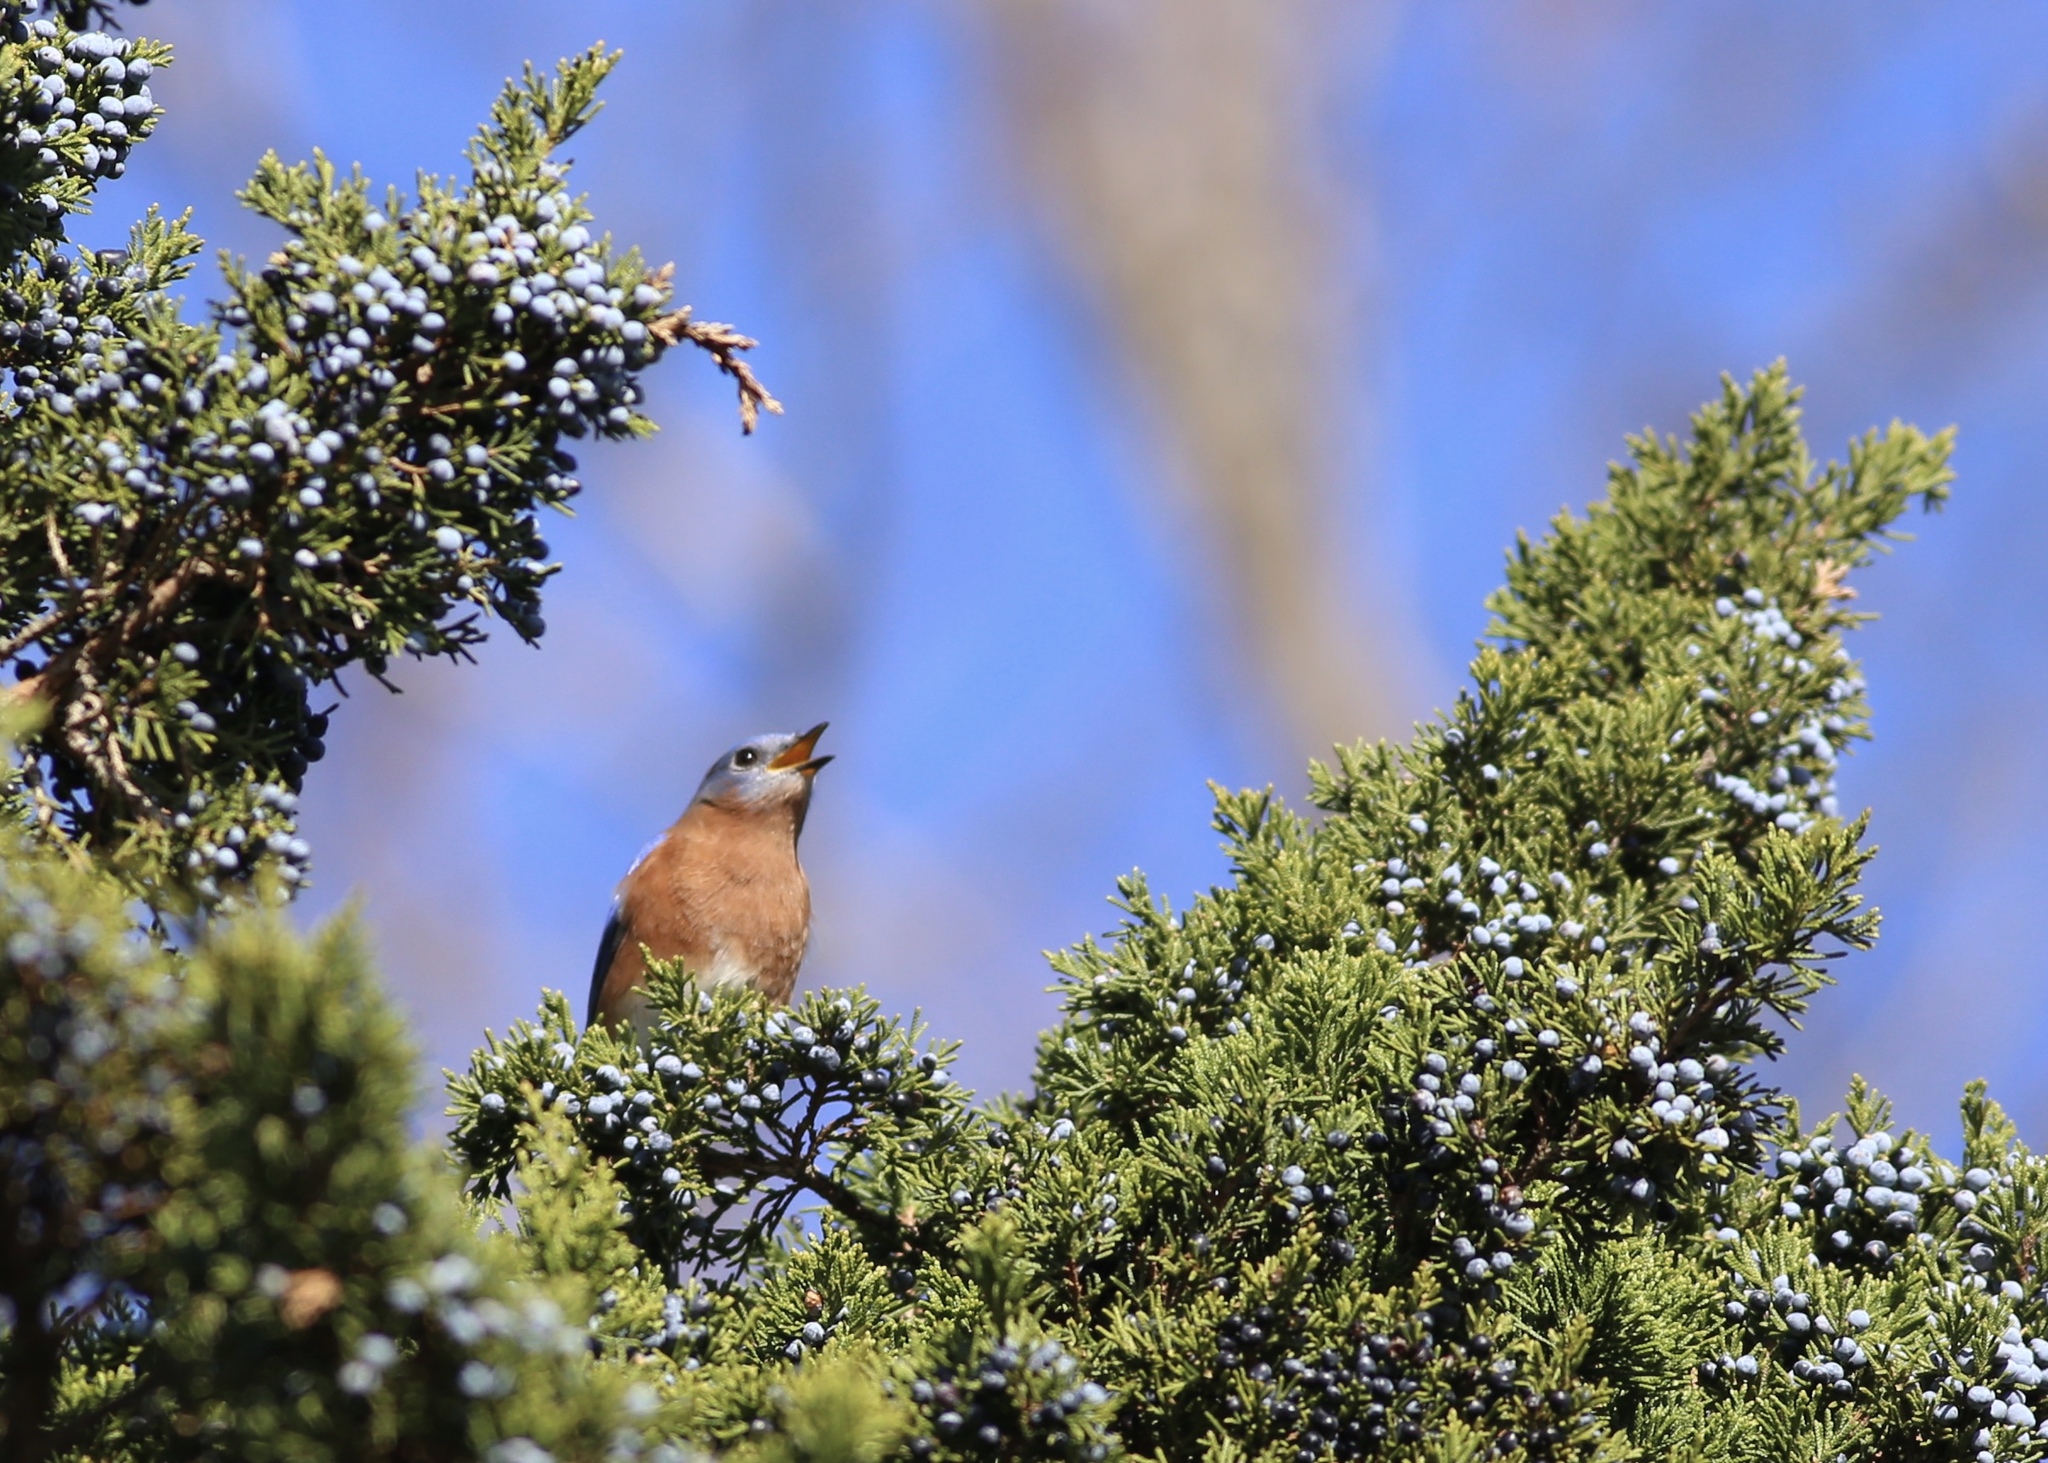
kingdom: Animalia
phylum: Chordata
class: Aves
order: Passeriformes
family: Turdidae
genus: Sialia
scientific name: Sialia sialis
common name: Eastern bluebird
